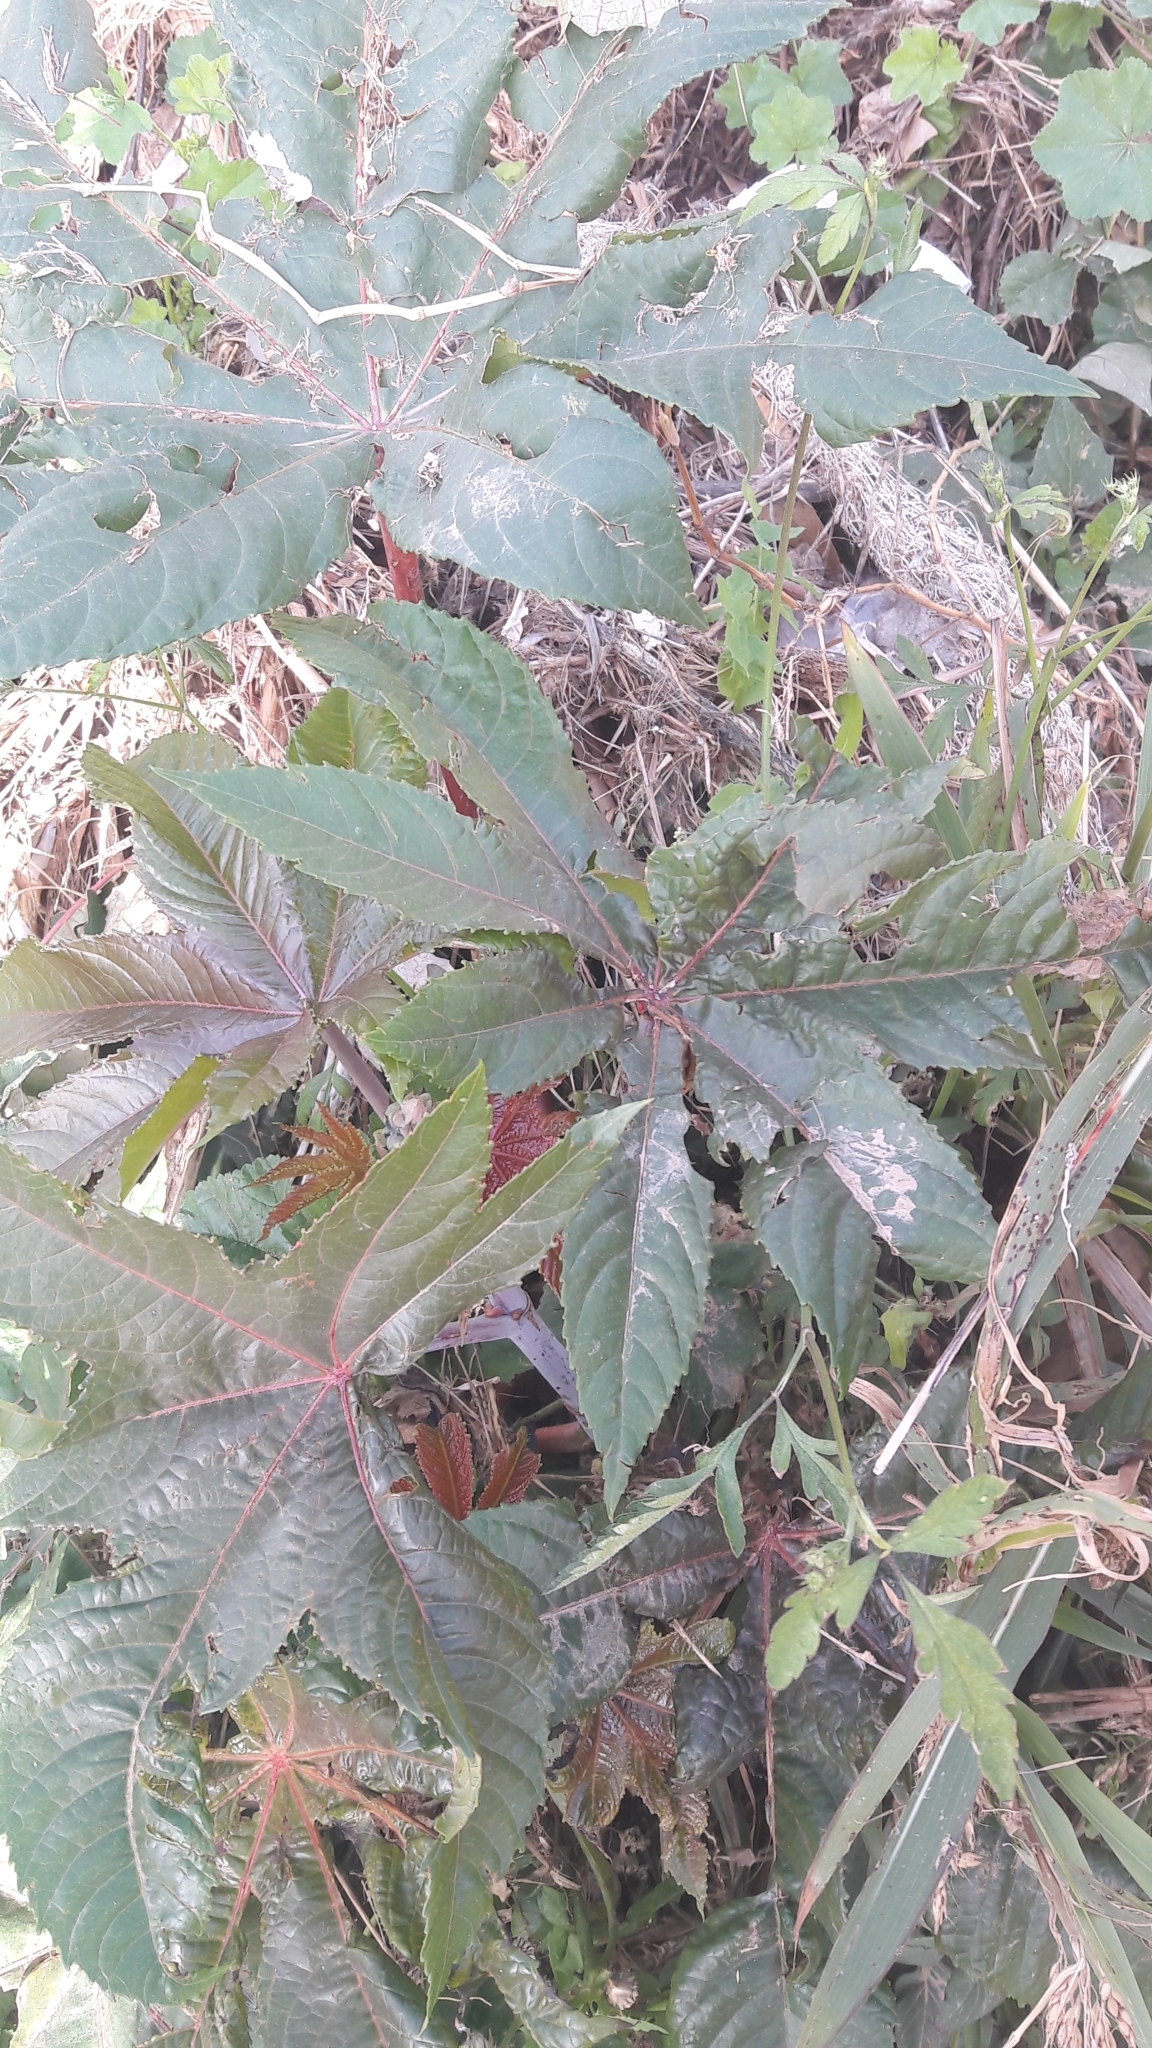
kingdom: Plantae
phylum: Tracheophyta
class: Magnoliopsida
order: Malpighiales
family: Euphorbiaceae
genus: Ricinus
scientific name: Ricinus communis
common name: Castor-oil-plant
